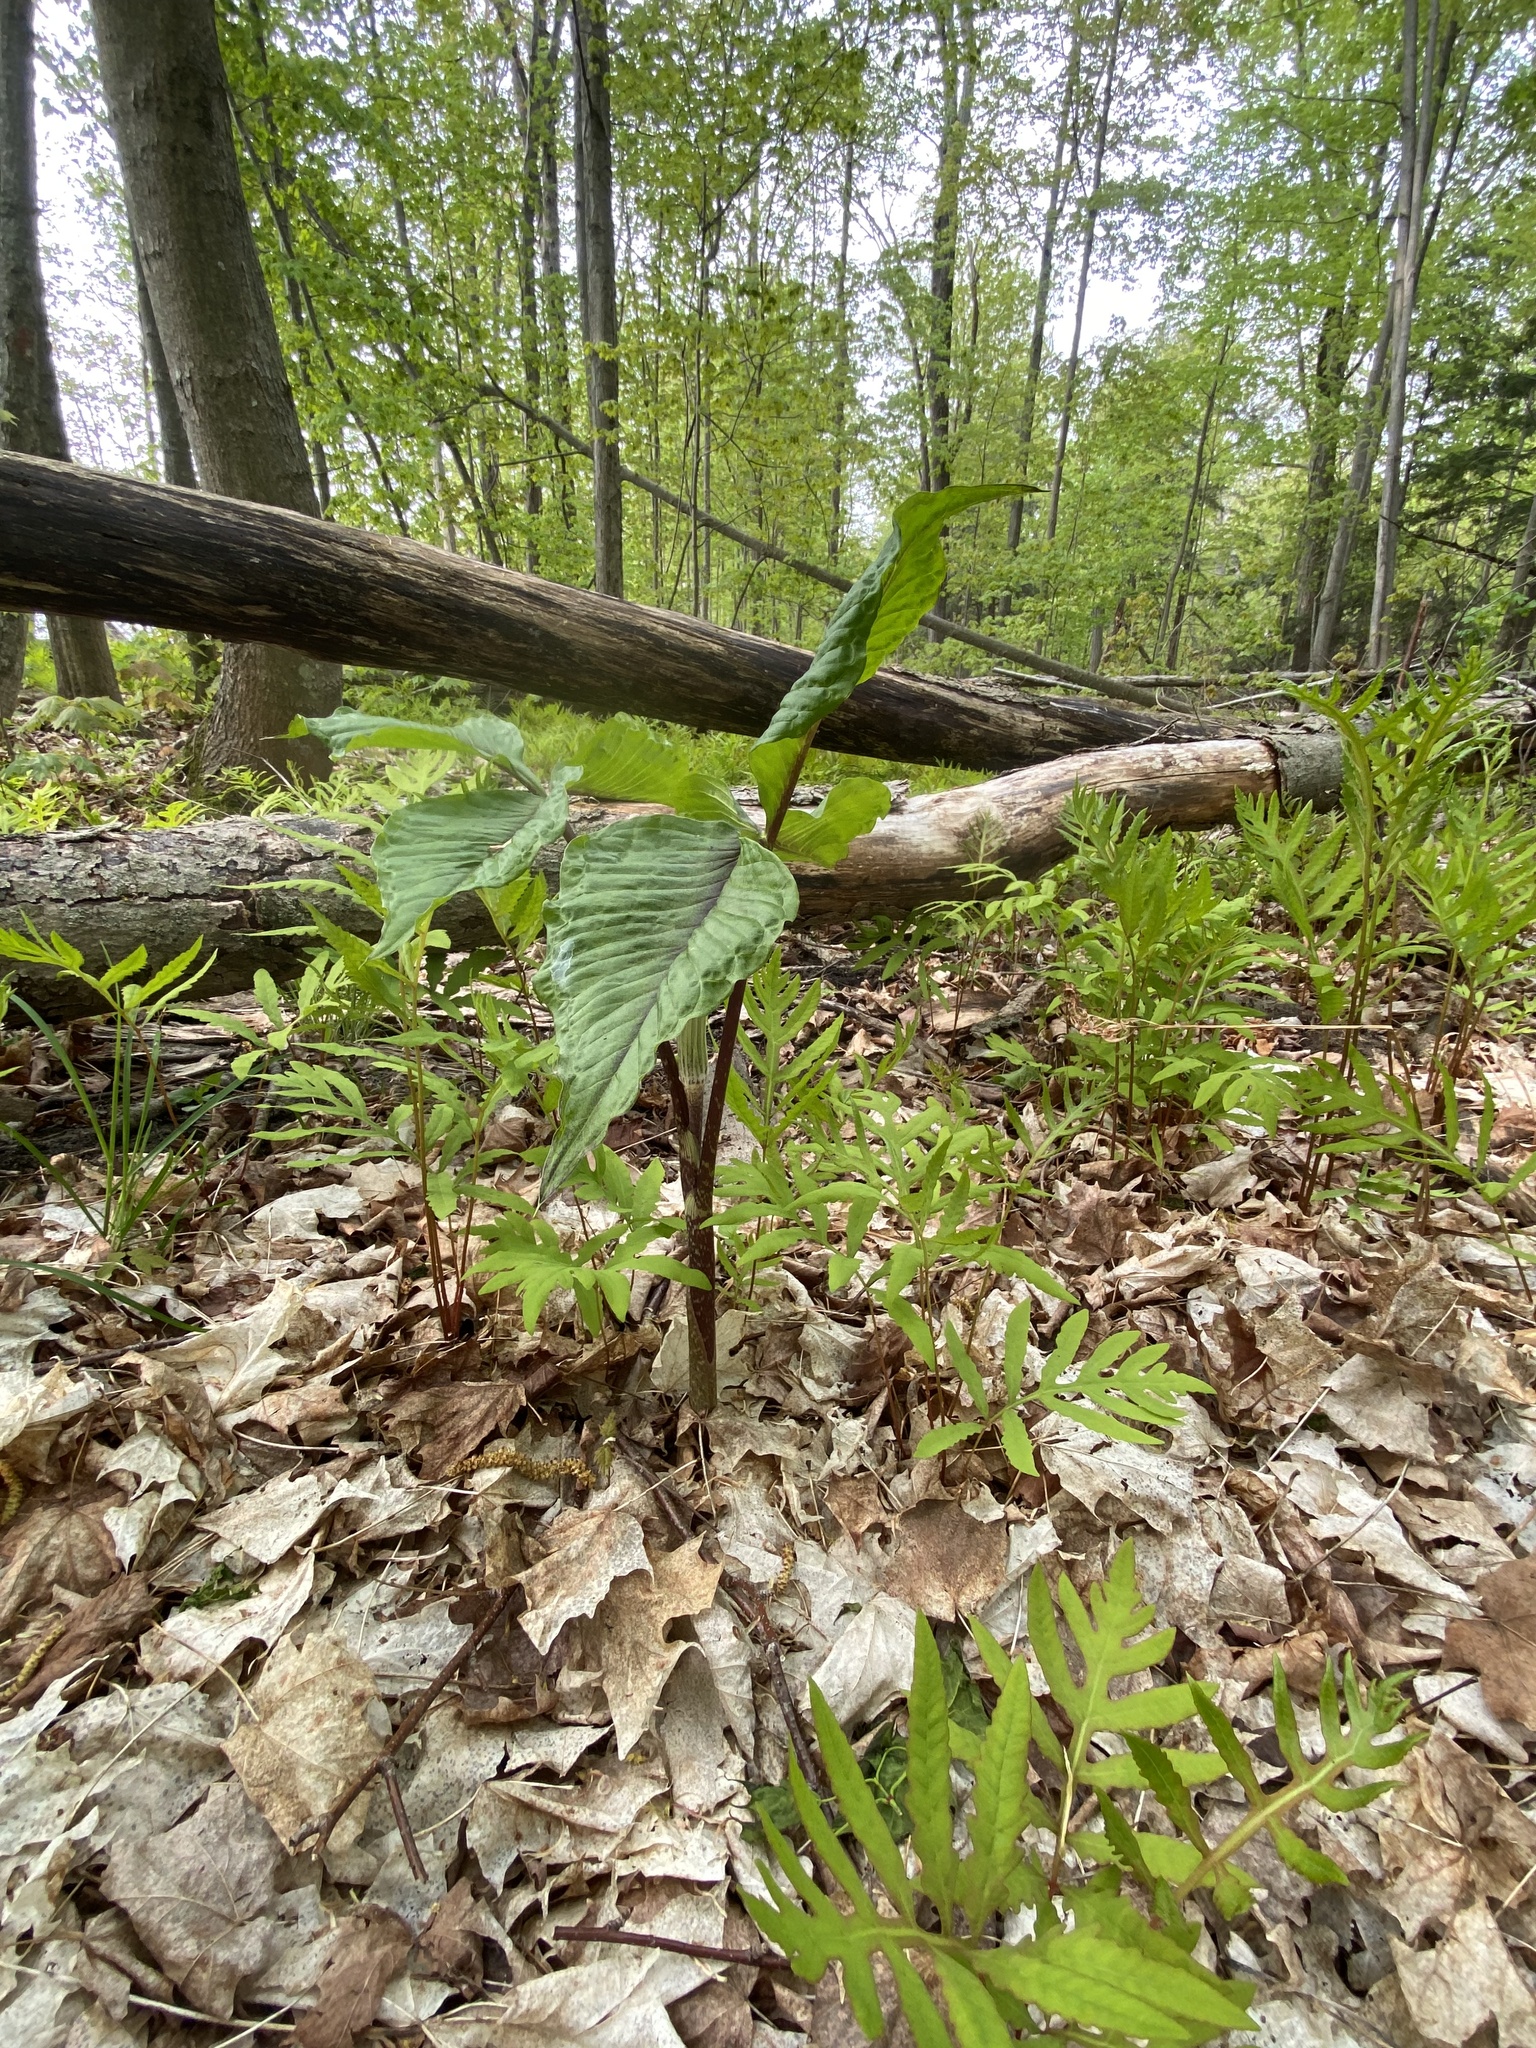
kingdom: Plantae
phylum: Tracheophyta
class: Liliopsida
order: Alismatales
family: Araceae
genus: Arisaema
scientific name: Arisaema triphyllum
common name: Jack-in-the-pulpit
